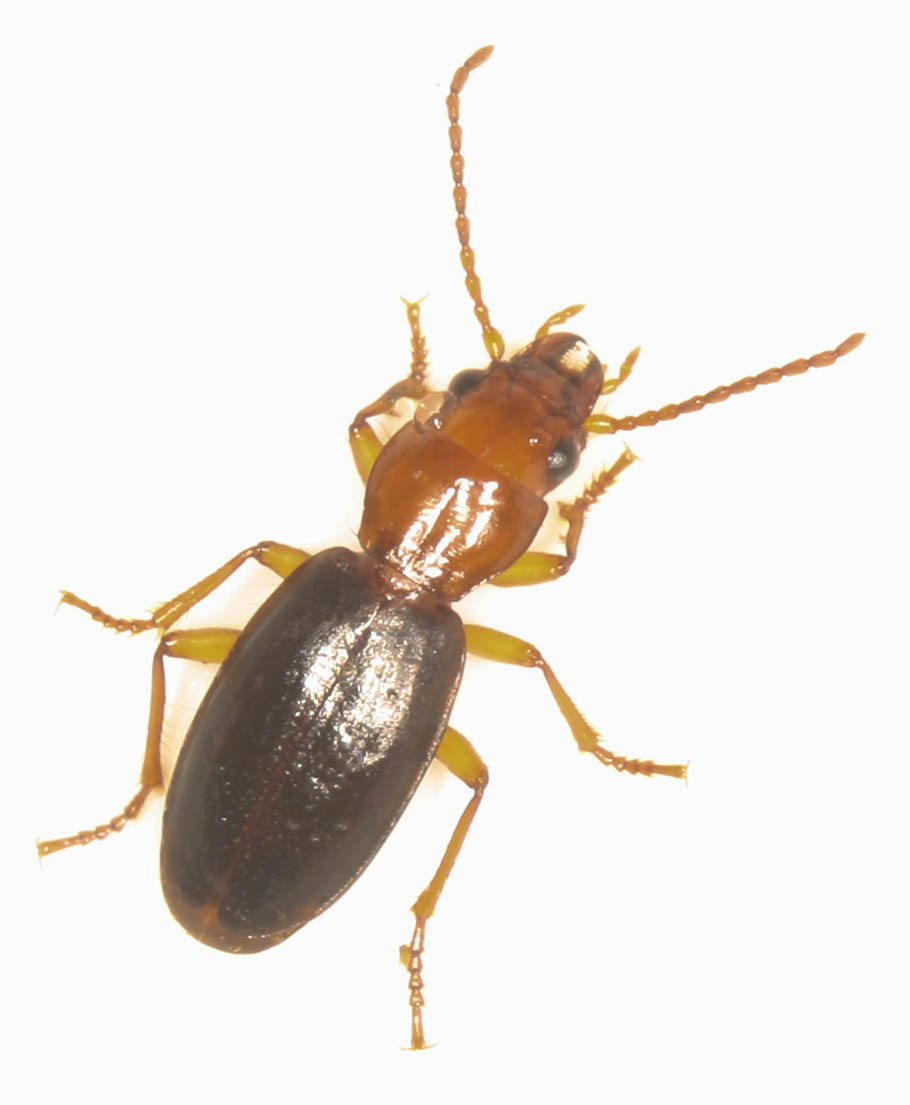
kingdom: Animalia
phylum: Arthropoda
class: Insecta
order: Coleoptera
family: Carabidae
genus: Thalassotrechus
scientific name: Thalassotrechus barbarae
